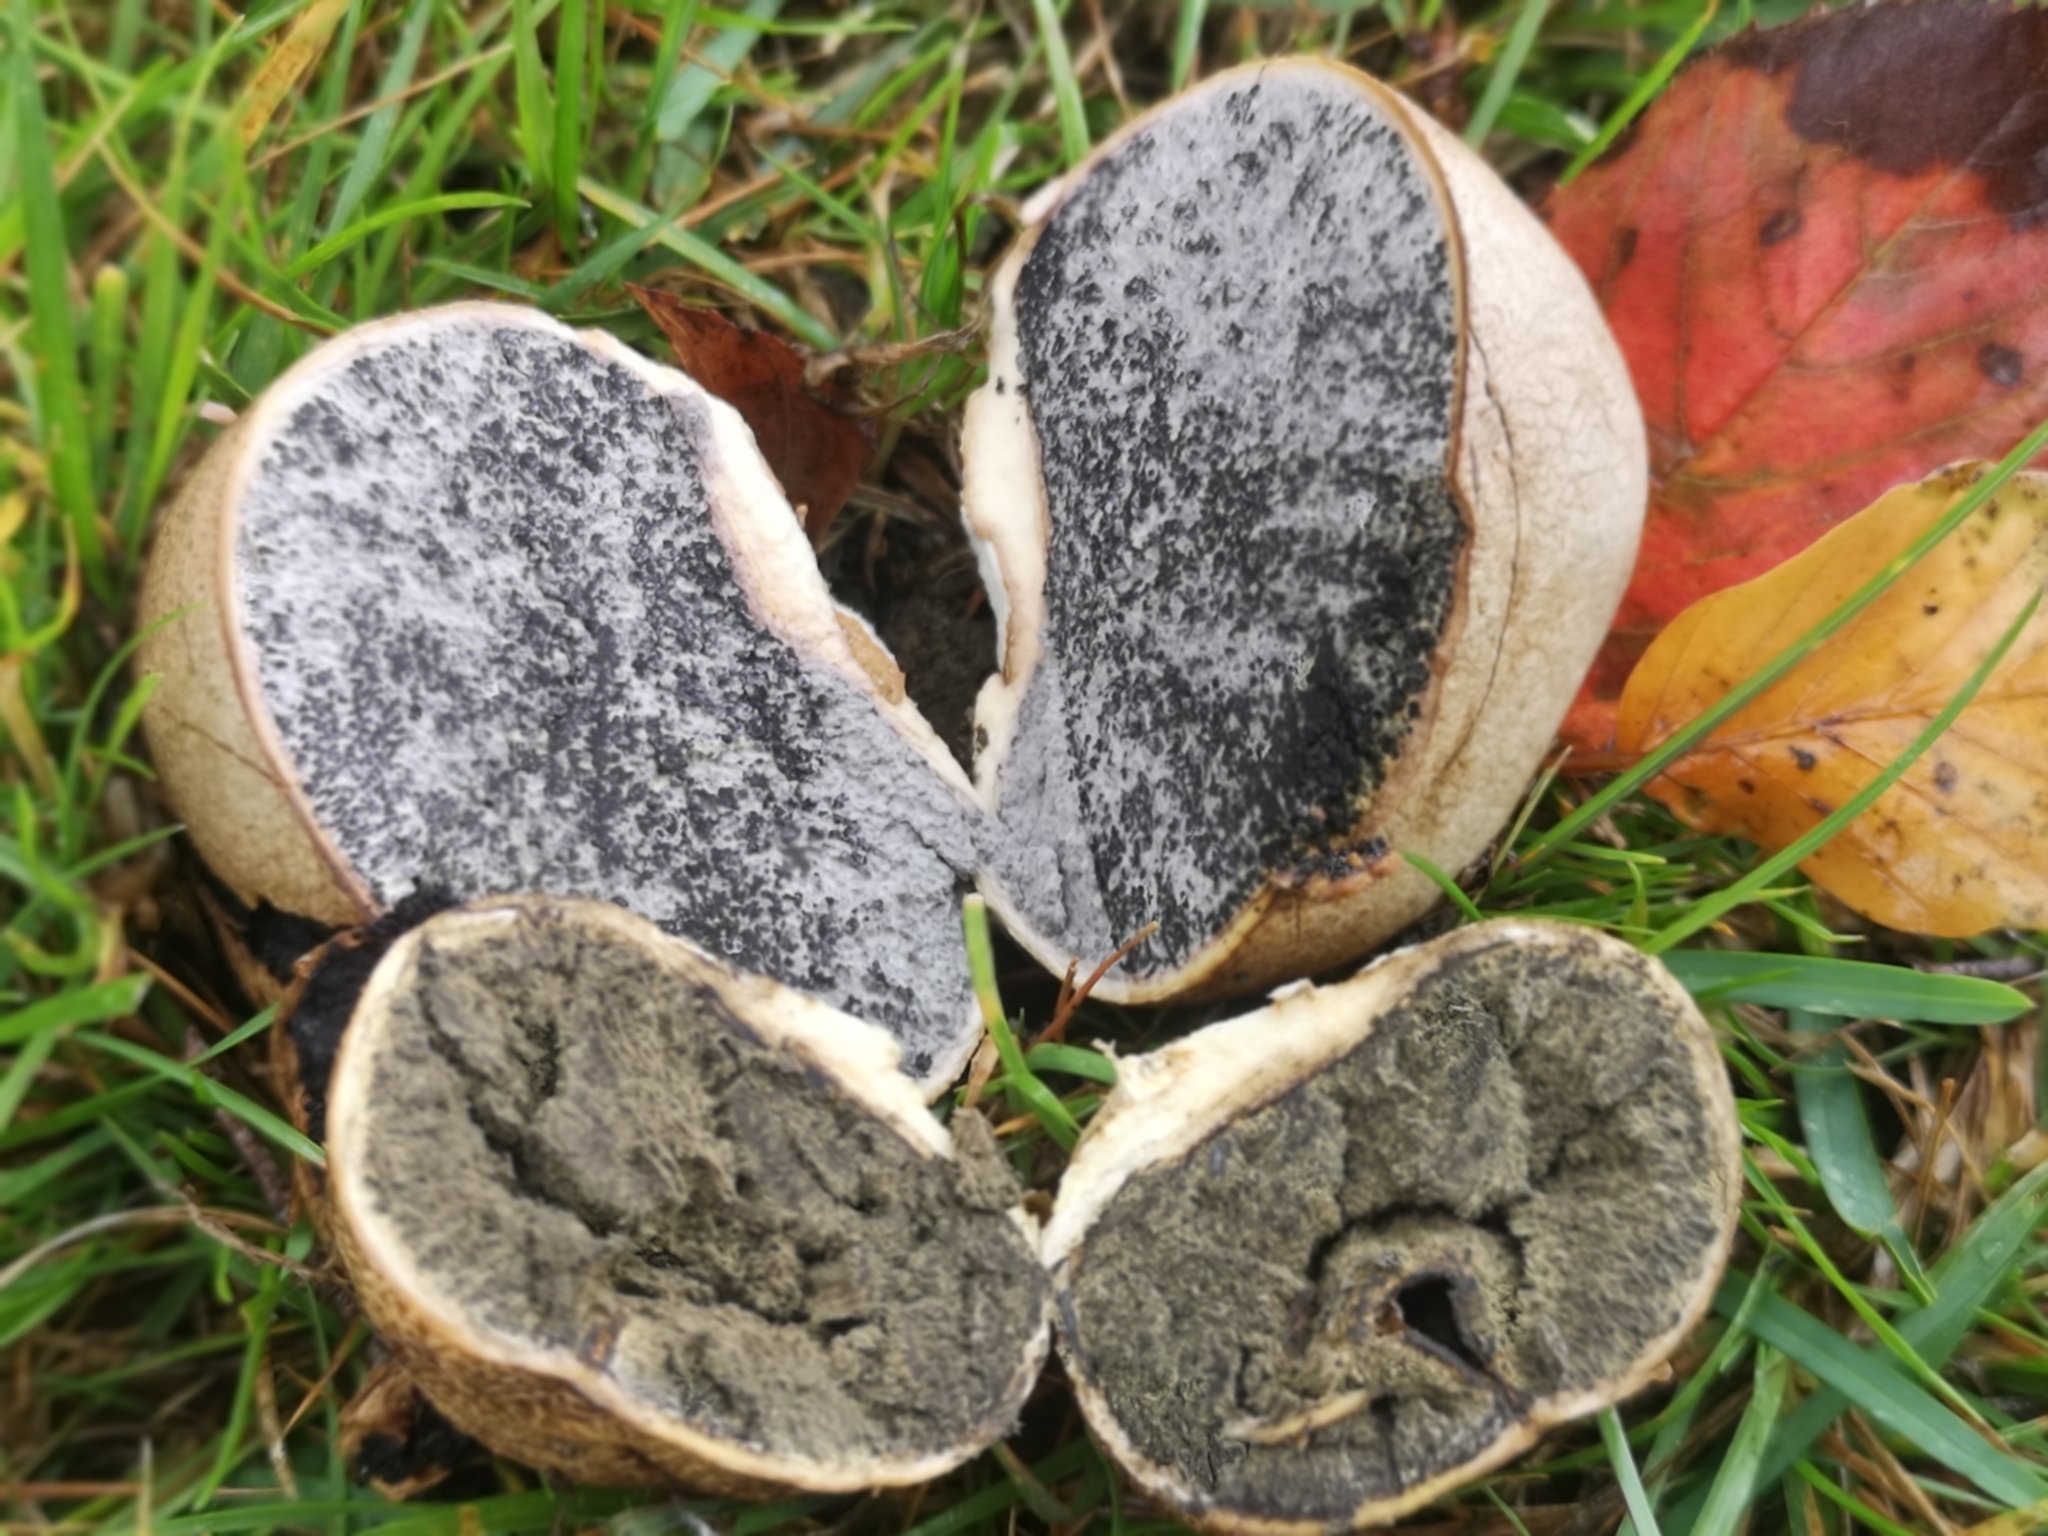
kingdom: Fungi
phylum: Basidiomycota
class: Agaricomycetes
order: Boletales
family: Sclerodermataceae
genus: Scleroderma
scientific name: Scleroderma bovista
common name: Potato earthball
